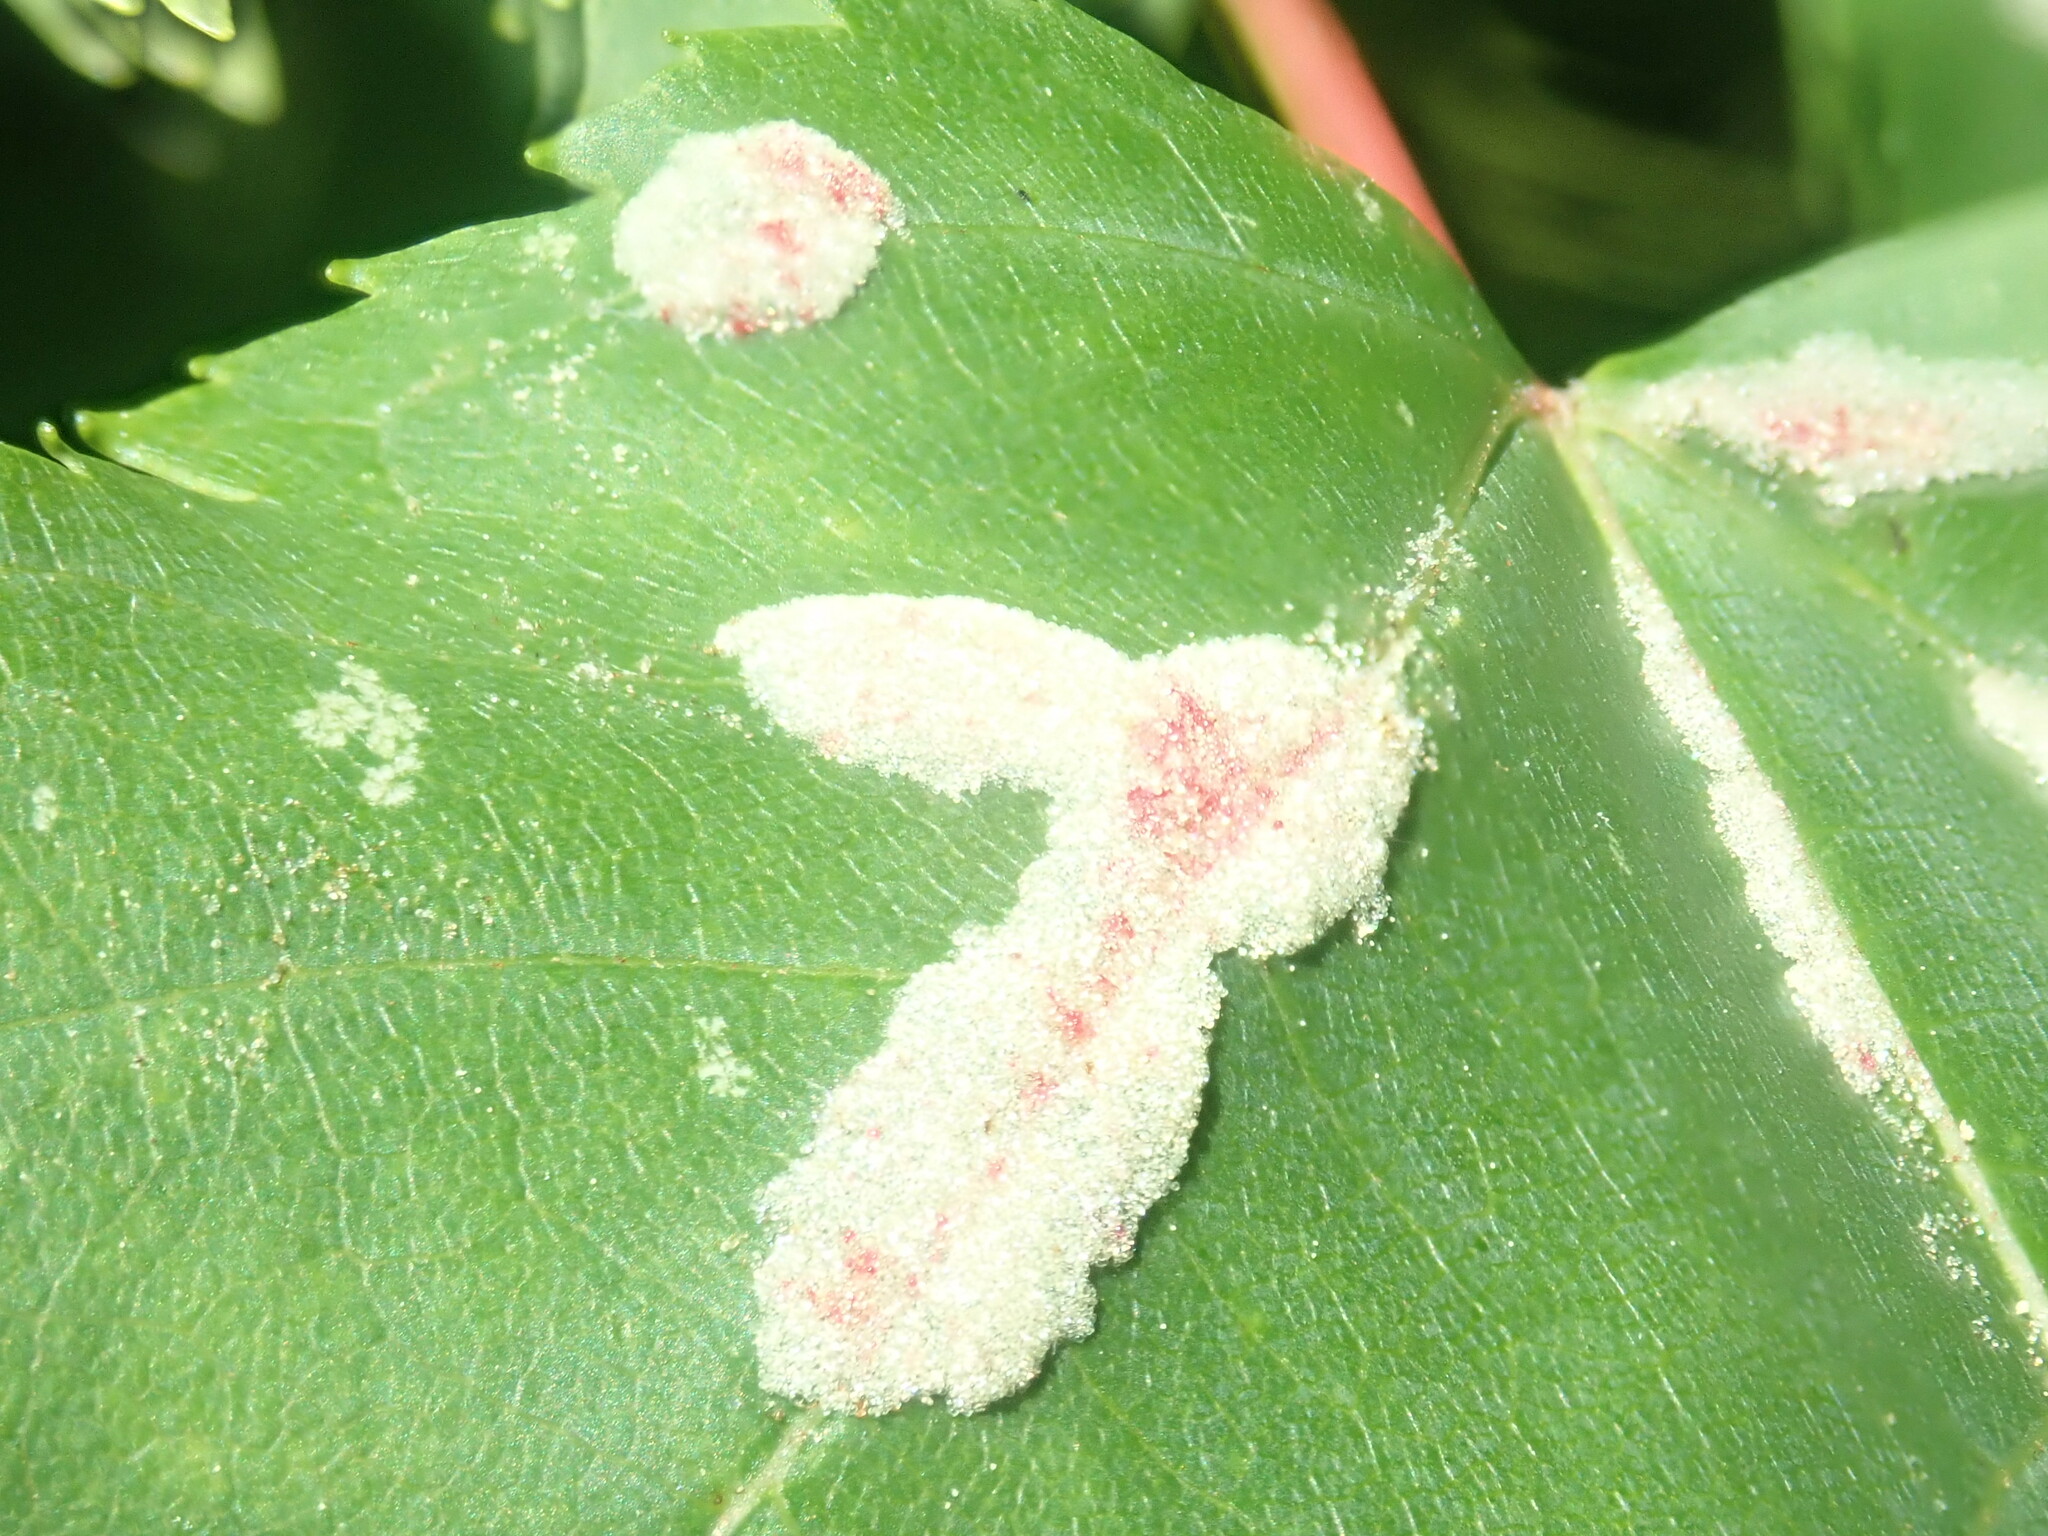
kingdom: Animalia
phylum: Arthropoda
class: Arachnida
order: Trombidiformes
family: Eriophyidae
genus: Aculus
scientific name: Aculus
